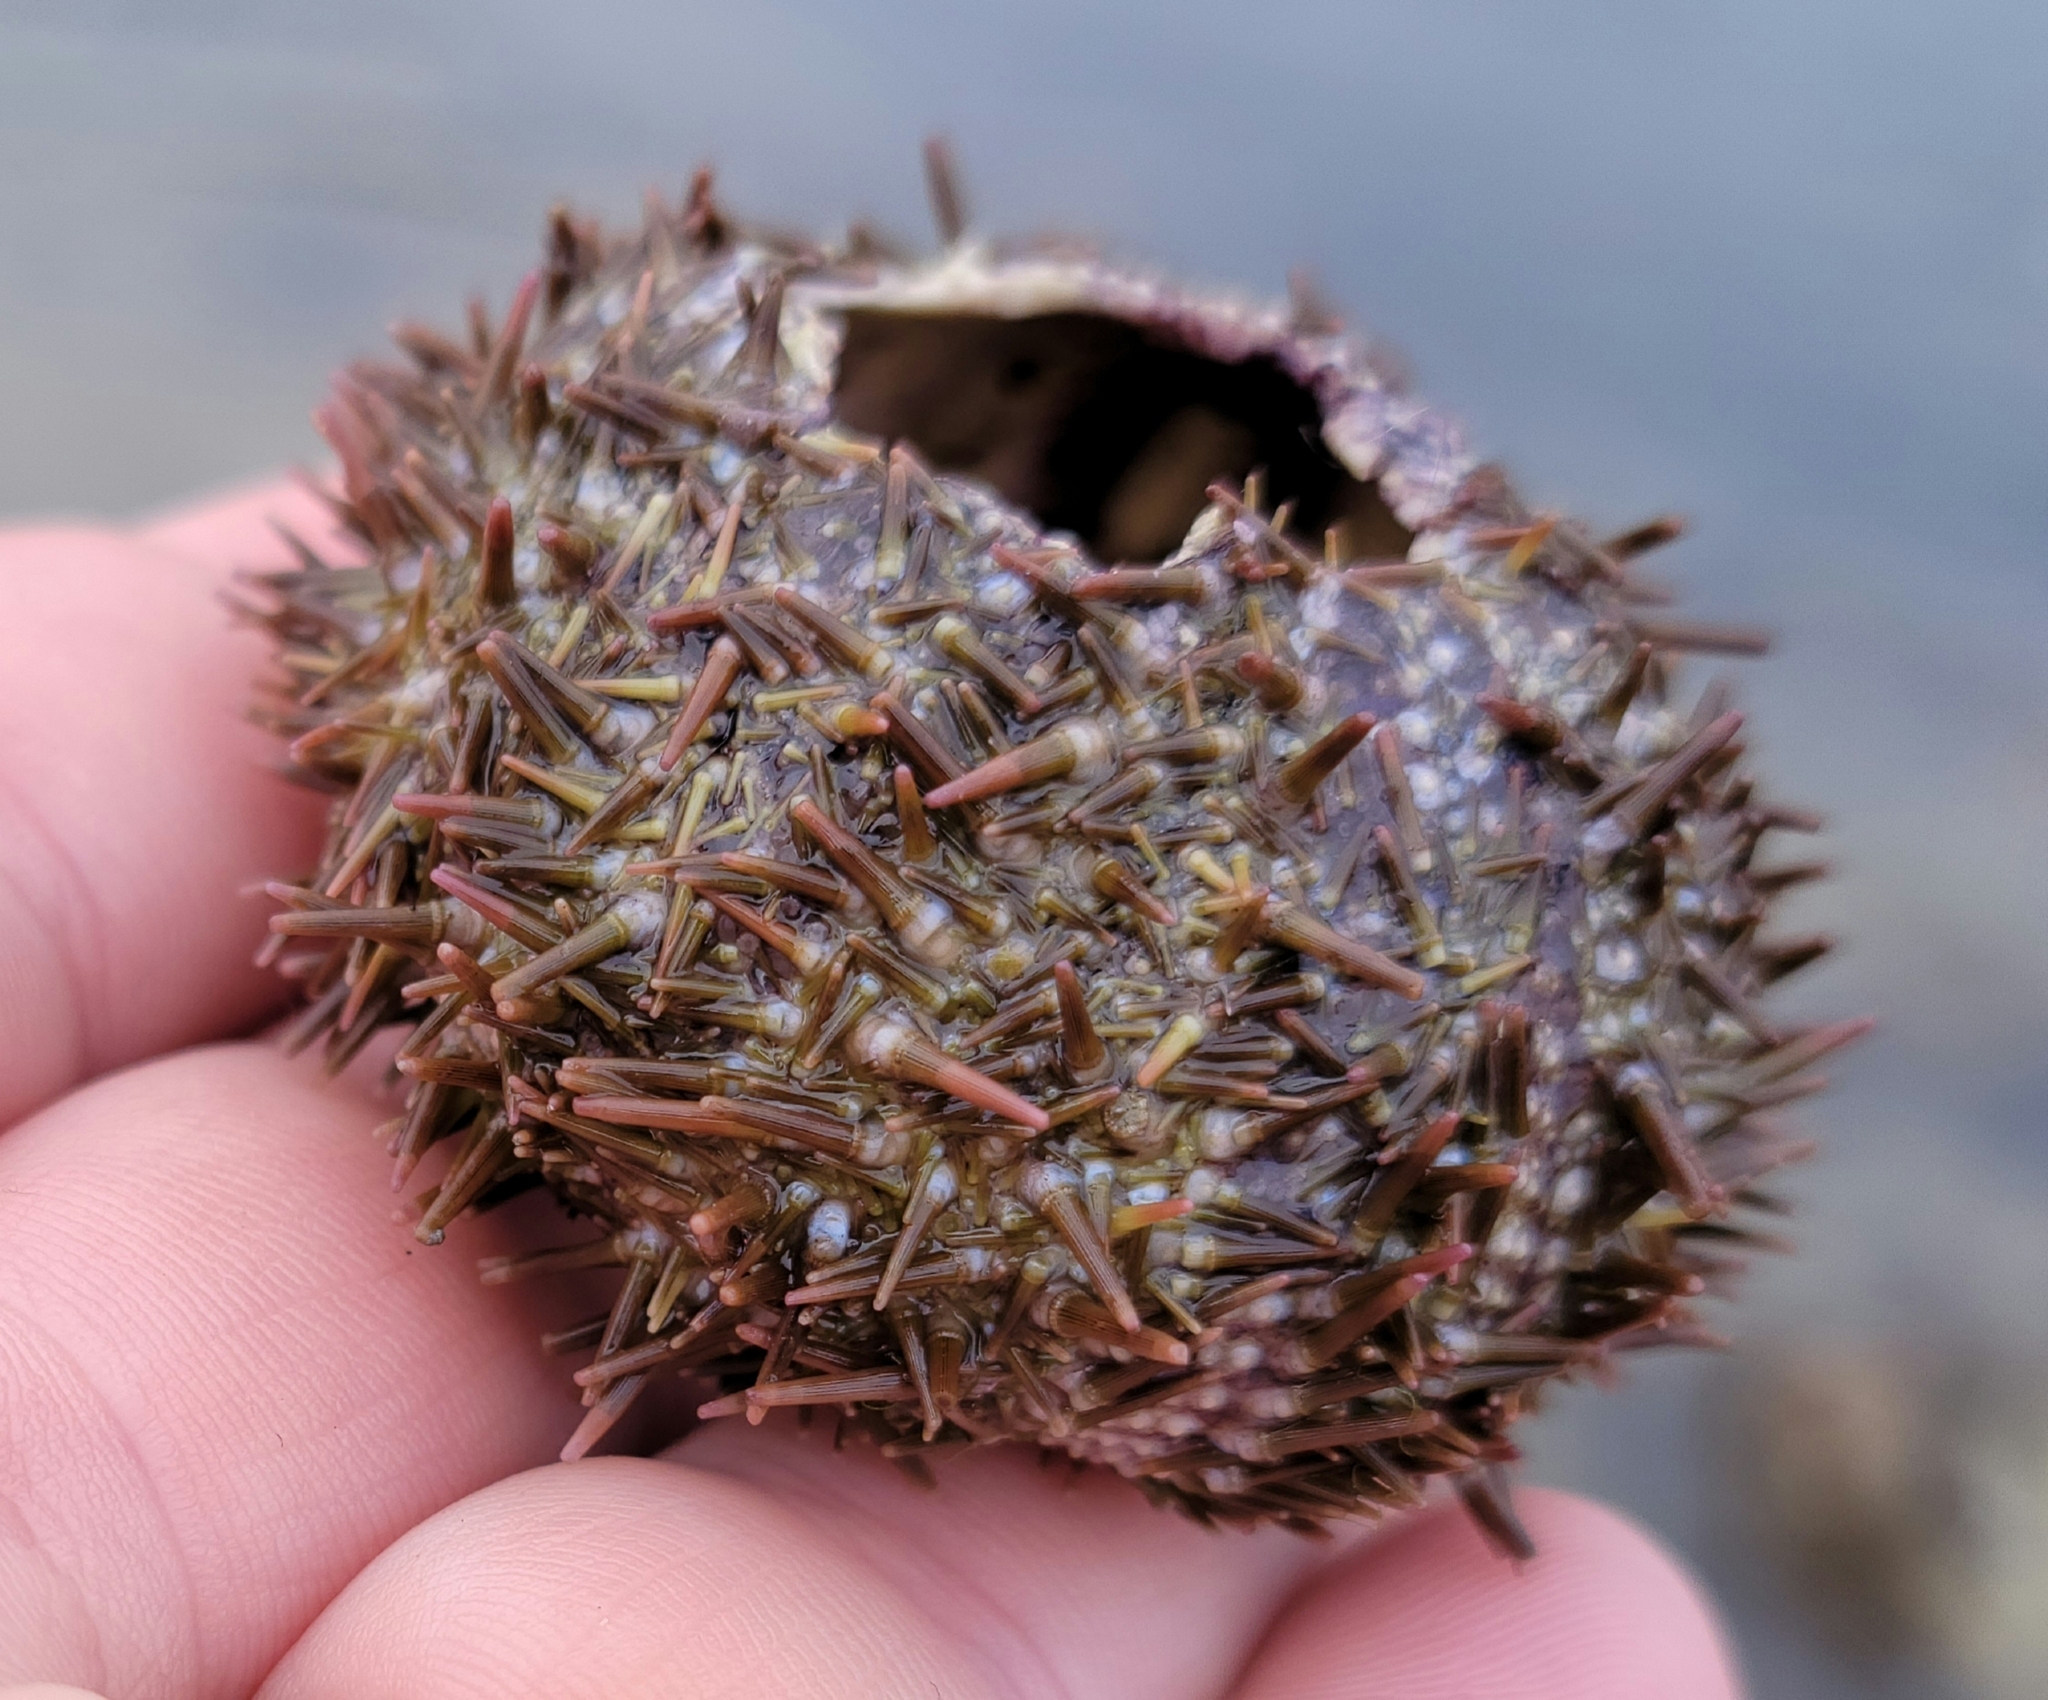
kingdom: Animalia
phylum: Echinodermata
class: Echinoidea
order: Camarodonta
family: Strongylocentrotidae
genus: Strongylocentrotus
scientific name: Strongylocentrotus droebachiensis
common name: Northern sea urchin
